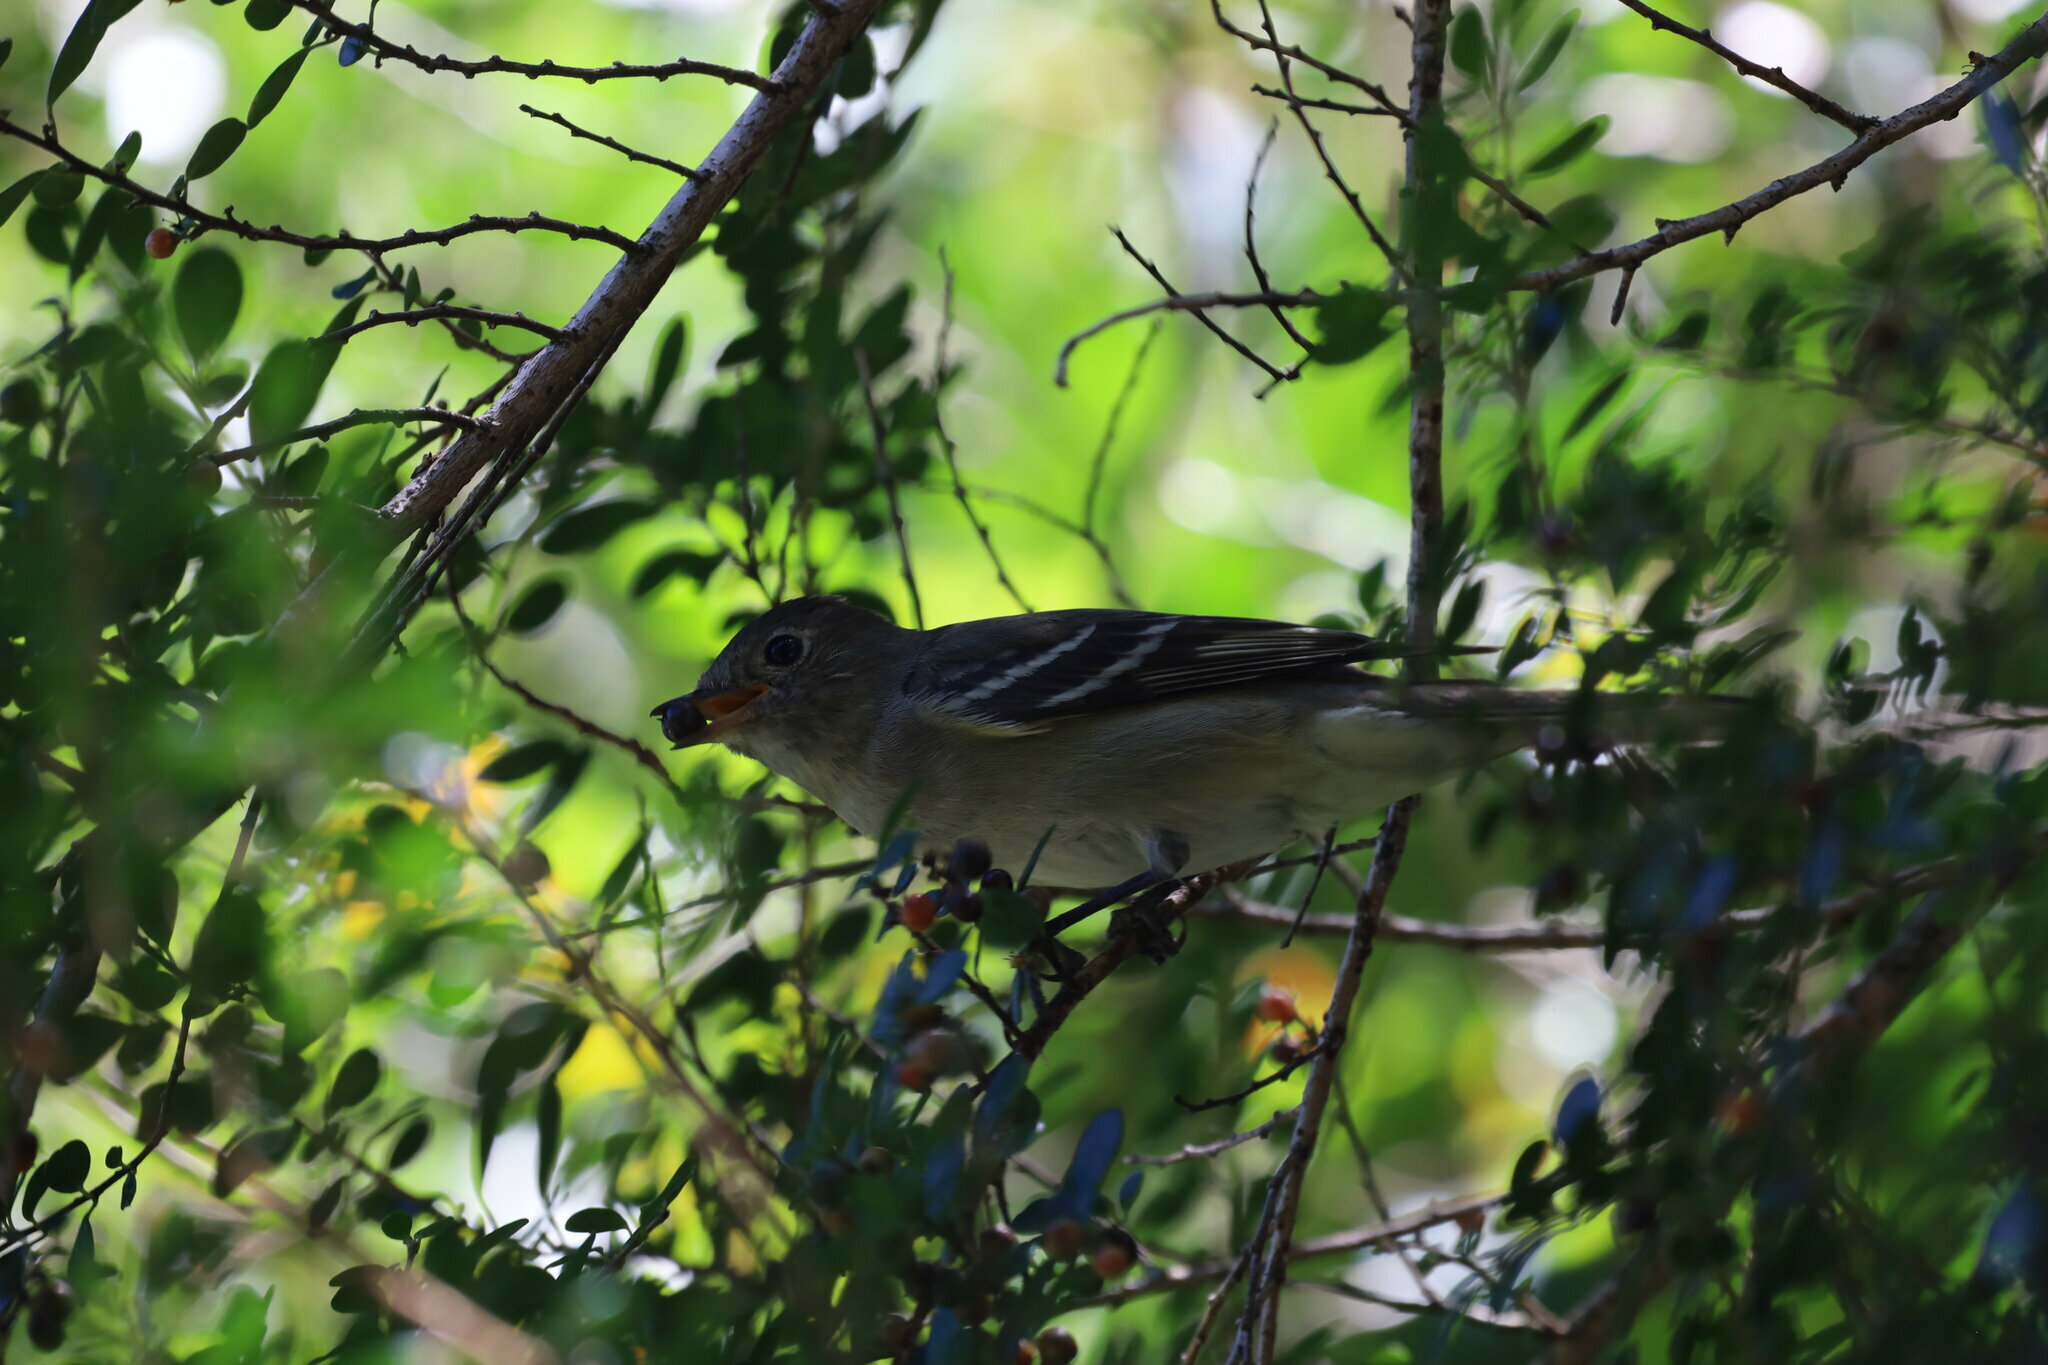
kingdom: Animalia
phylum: Chordata
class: Aves
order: Passeriformes
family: Tyrannidae
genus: Elaenia
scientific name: Elaenia albiceps
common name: White-crested elaenia
